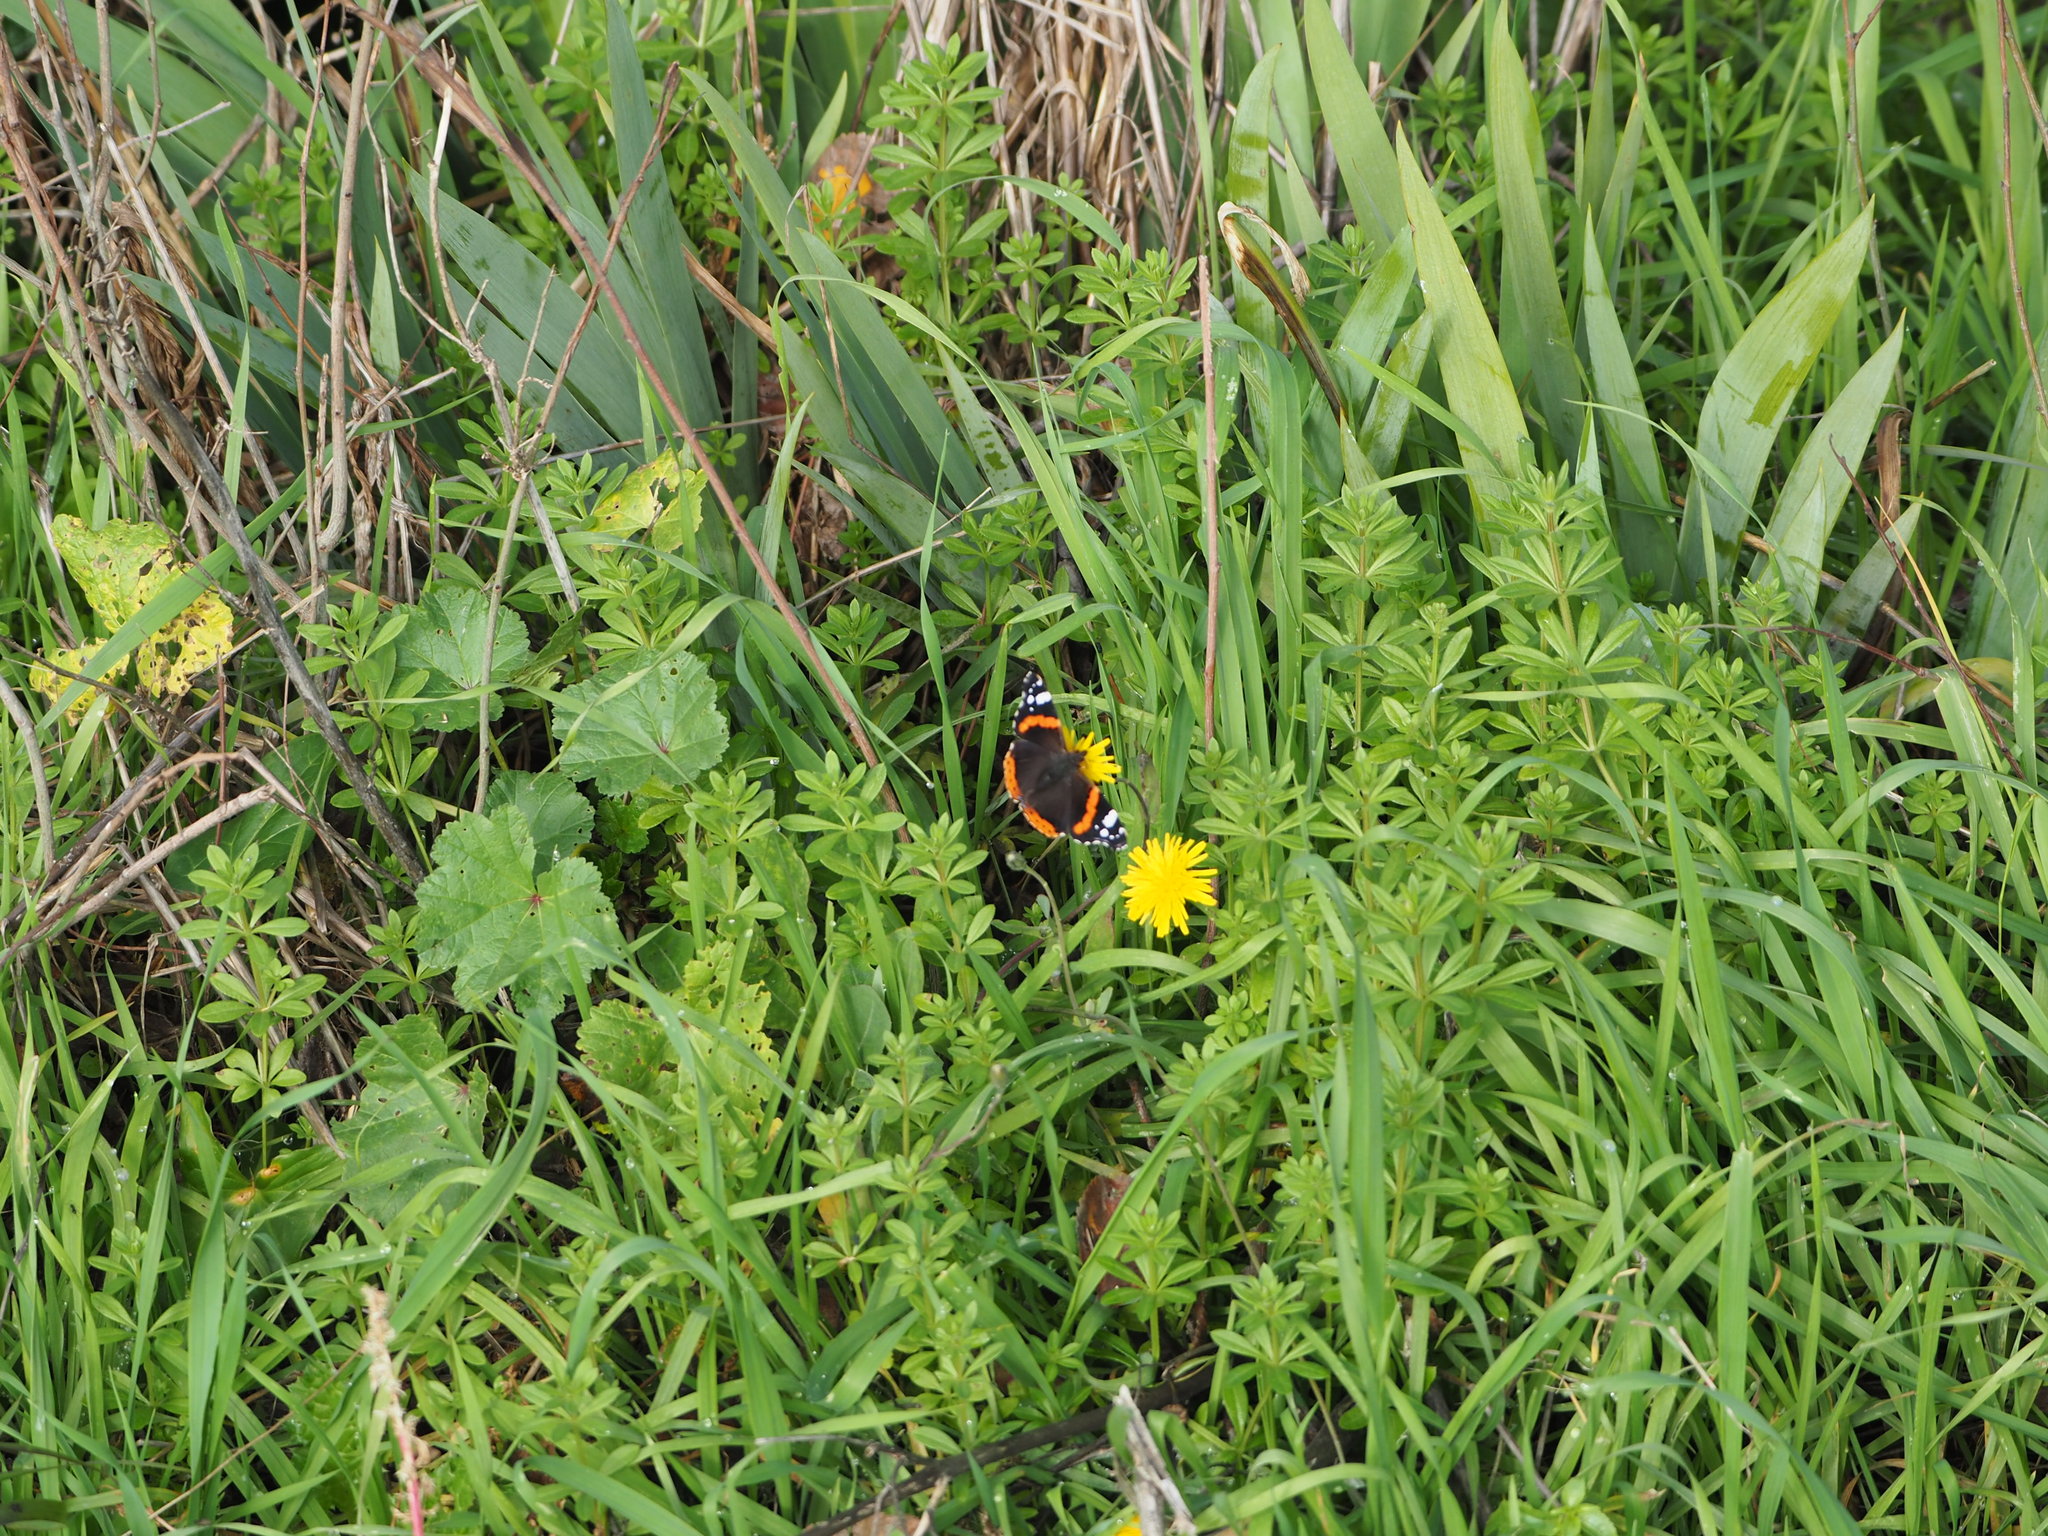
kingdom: Animalia
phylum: Arthropoda
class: Insecta
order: Lepidoptera
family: Nymphalidae
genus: Vanessa
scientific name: Vanessa atalanta
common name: Red admiral
